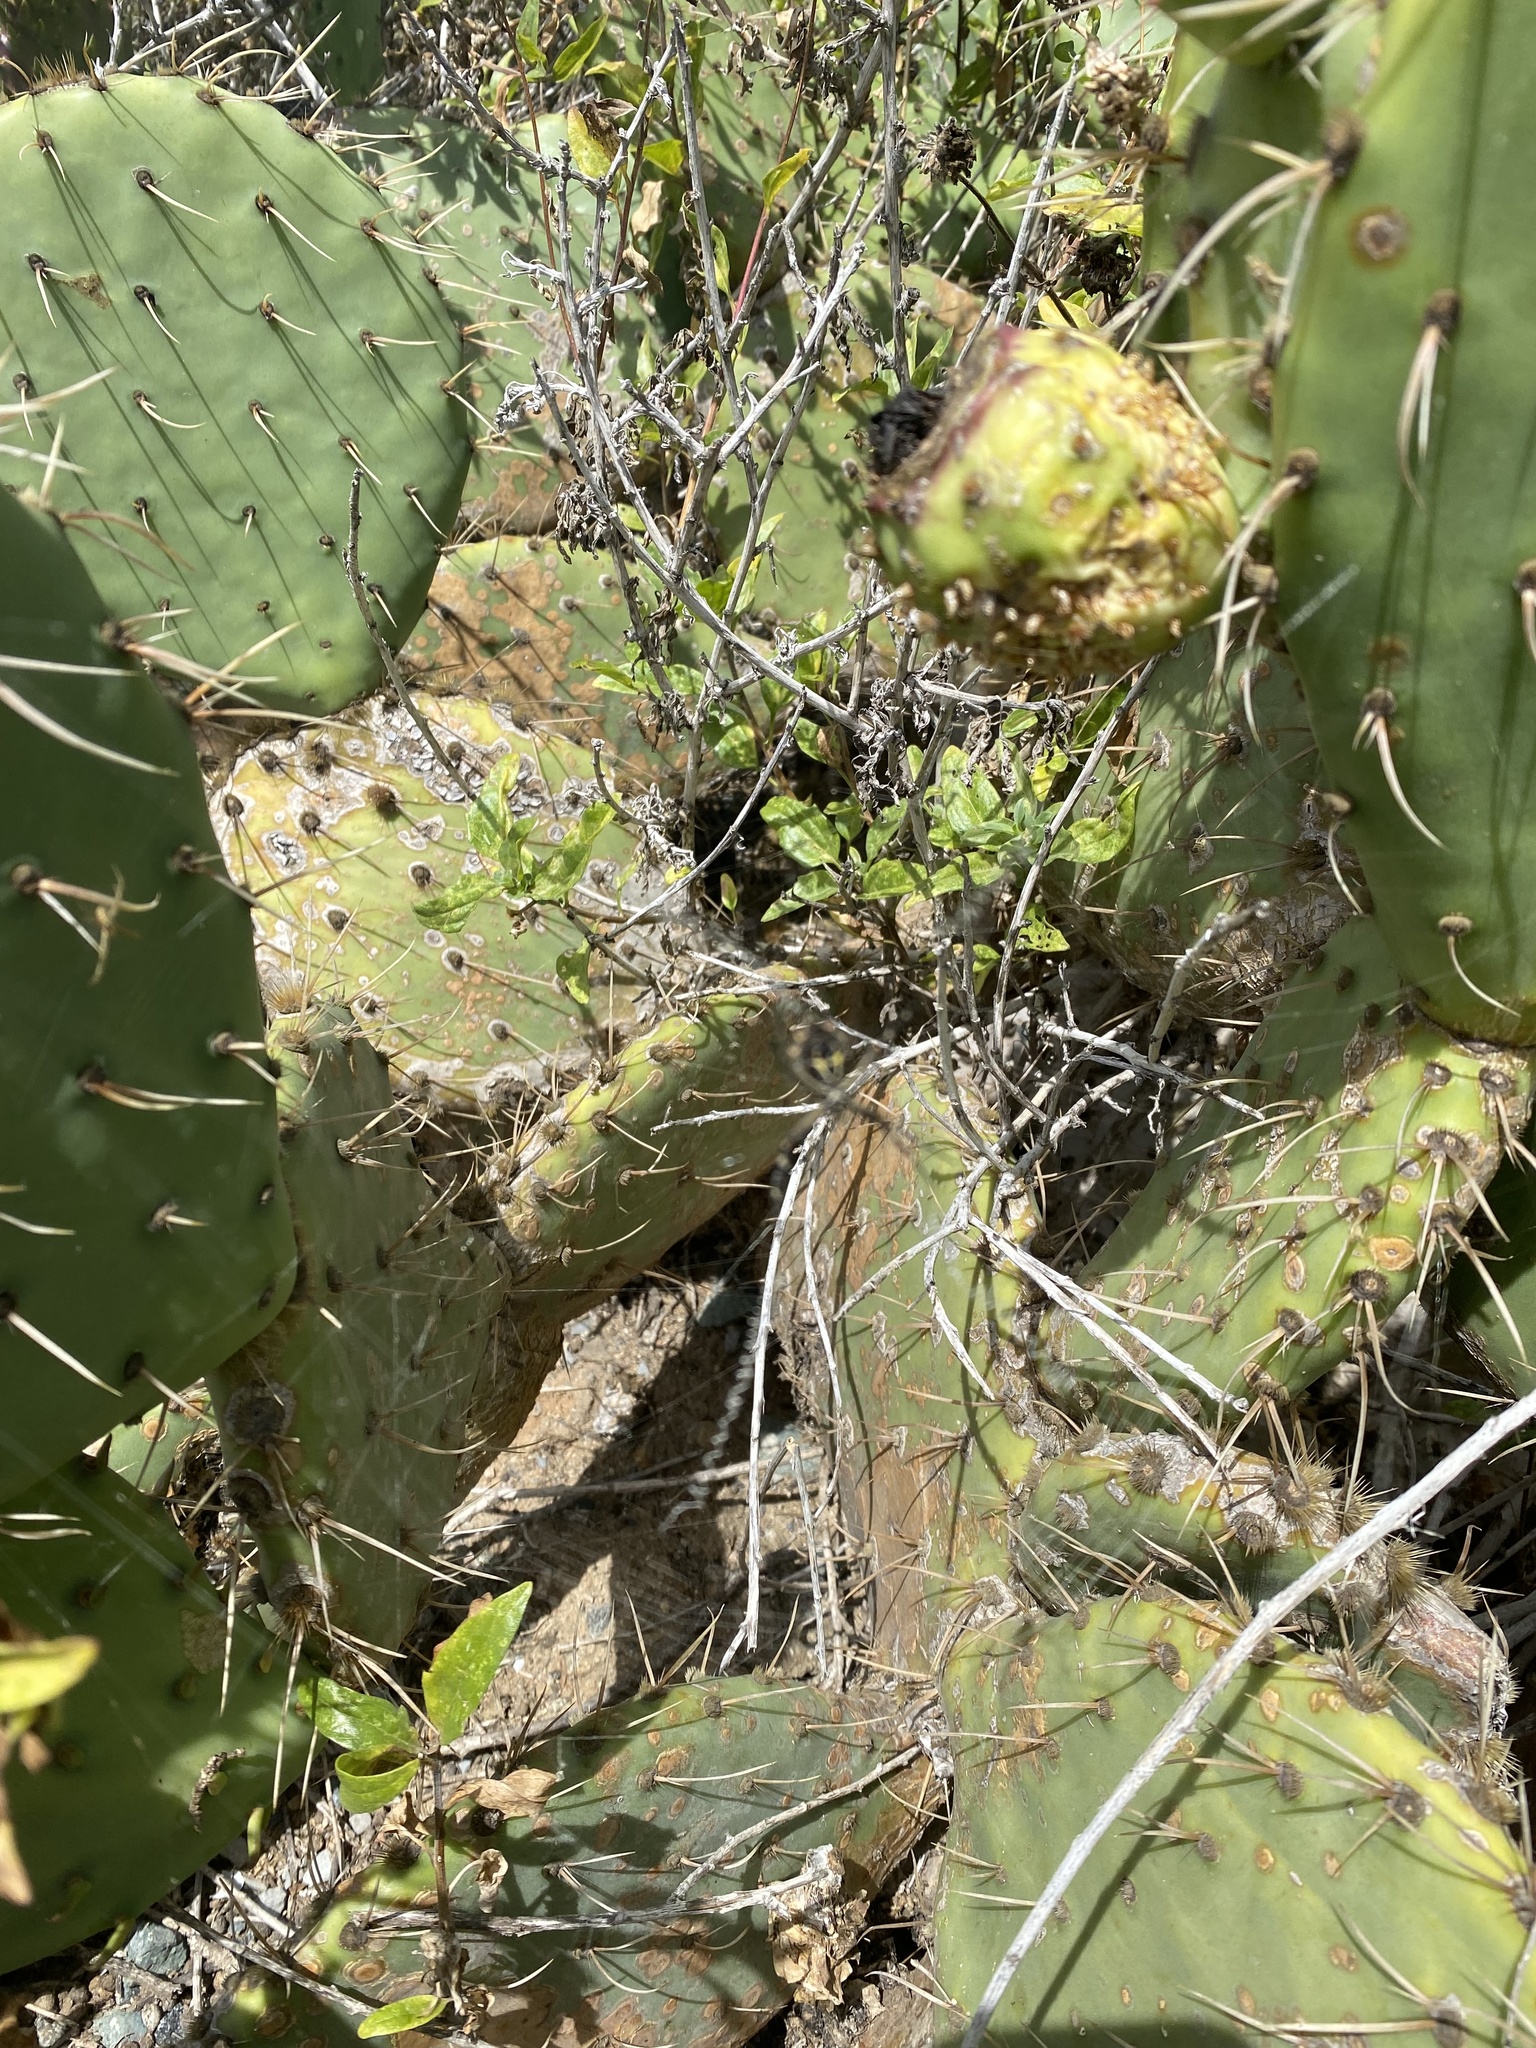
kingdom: Animalia
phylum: Arthropoda
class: Arachnida
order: Araneae
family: Araneidae
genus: Argiope
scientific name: Argiope argentata
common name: Orb weavers
